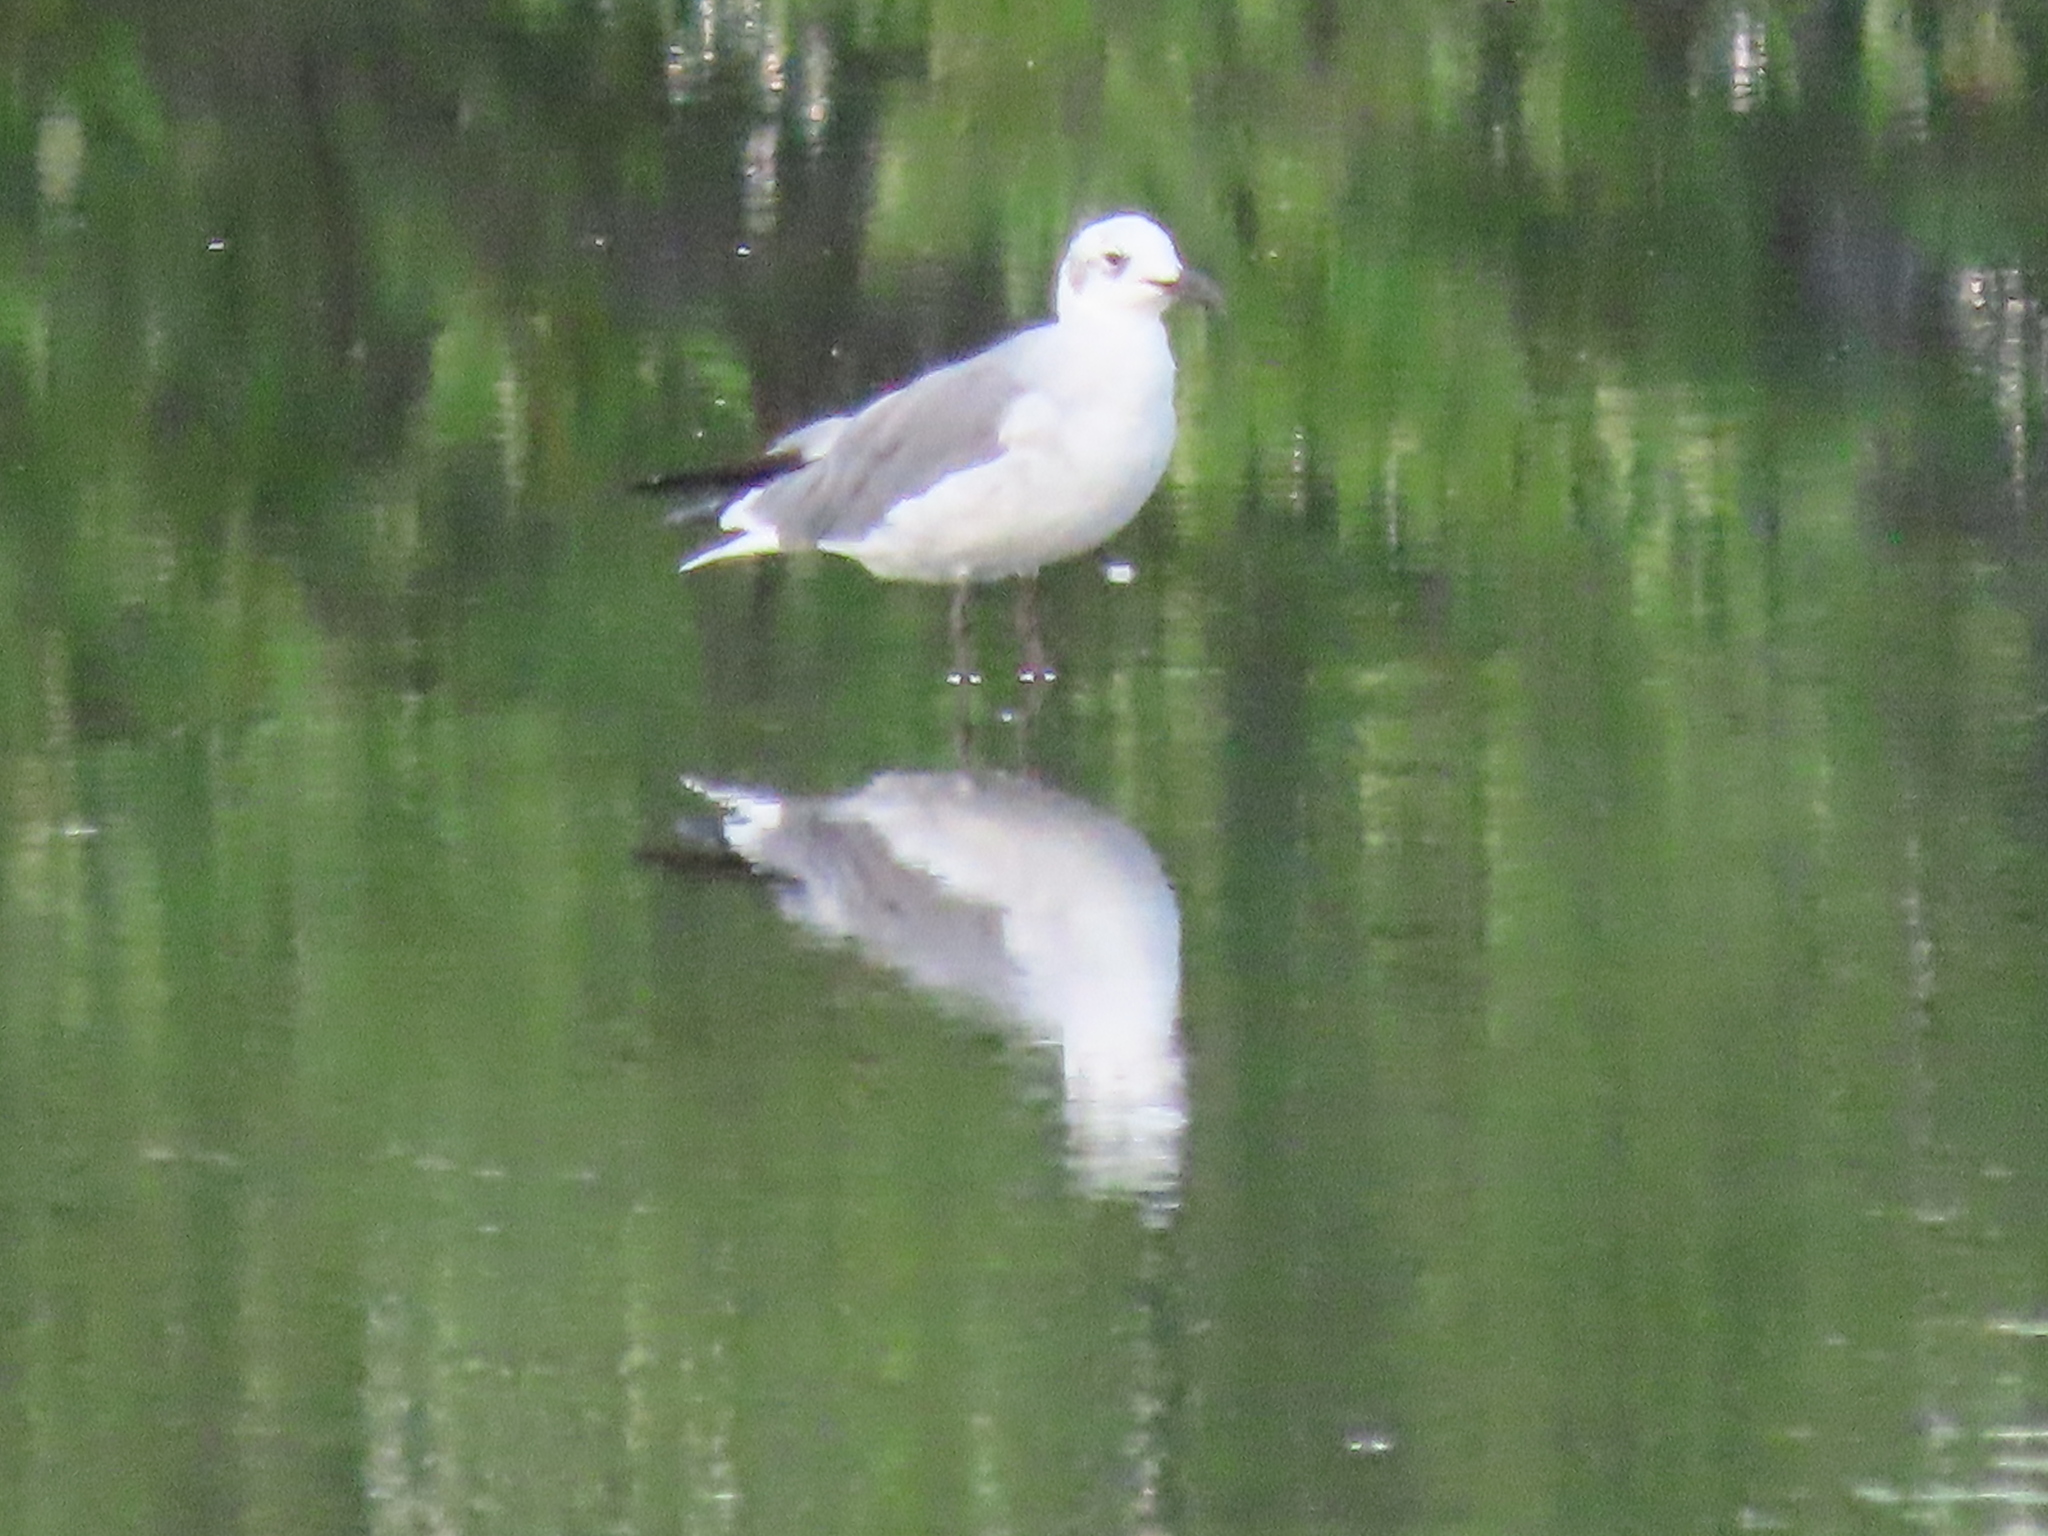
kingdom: Animalia
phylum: Chordata
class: Aves
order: Charadriiformes
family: Laridae
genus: Leucophaeus
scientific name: Leucophaeus atricilla
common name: Laughing gull
